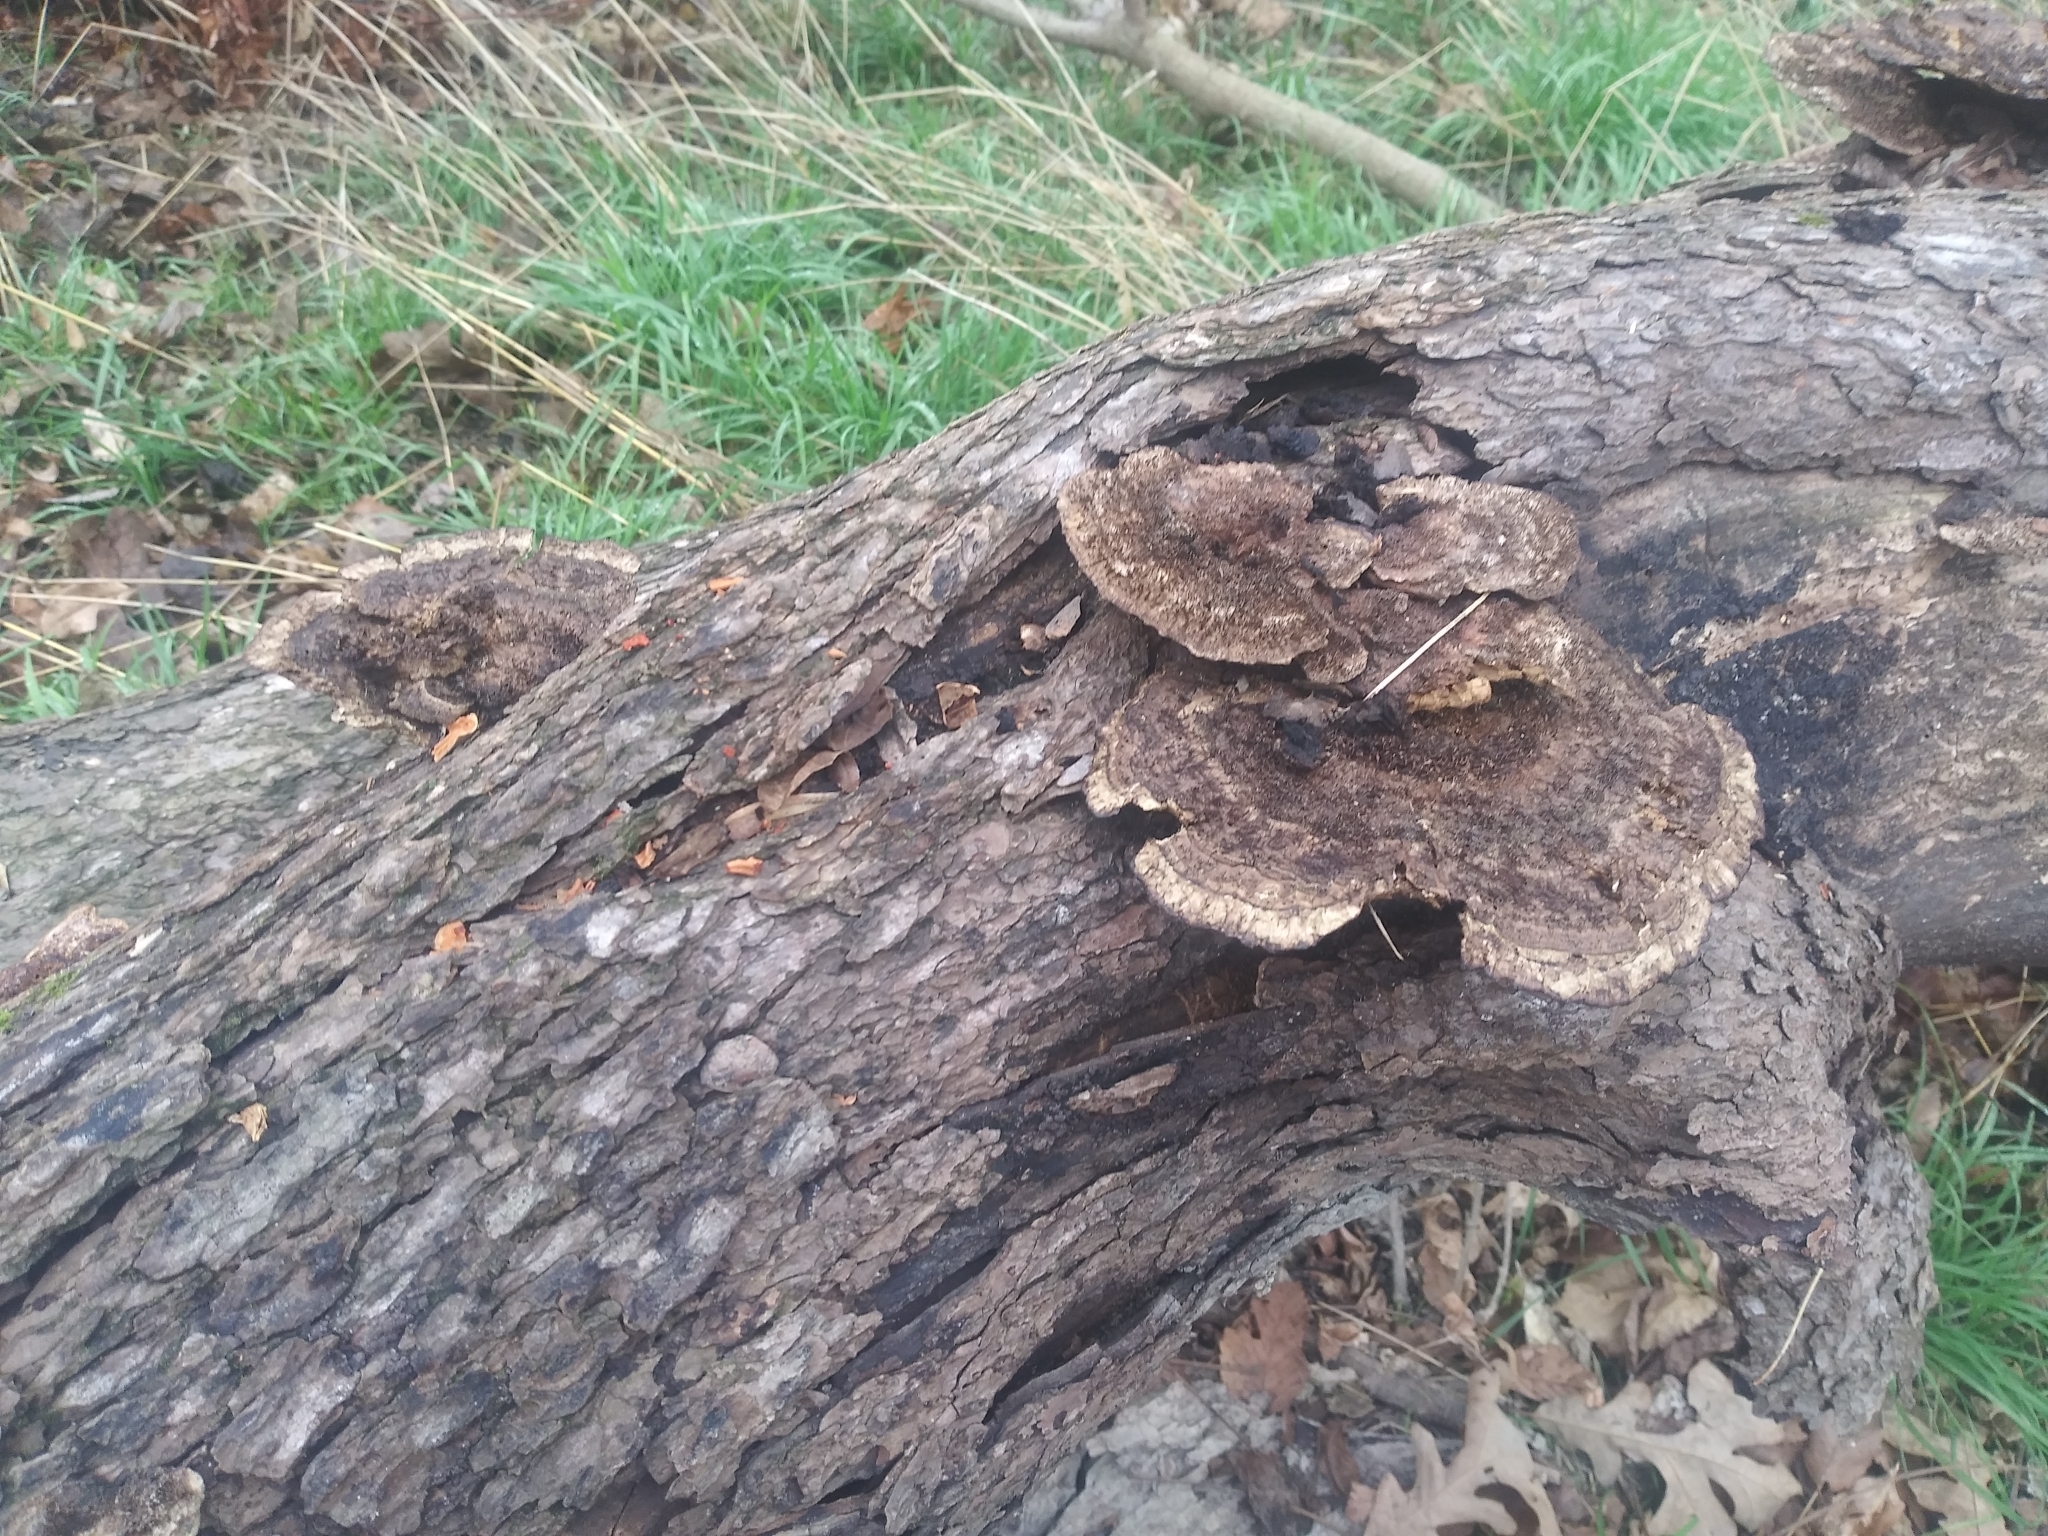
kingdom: Fungi
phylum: Basidiomycota
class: Agaricomycetes
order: Polyporales
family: Cerrenaceae
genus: Cerrena
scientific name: Cerrena hydnoides
